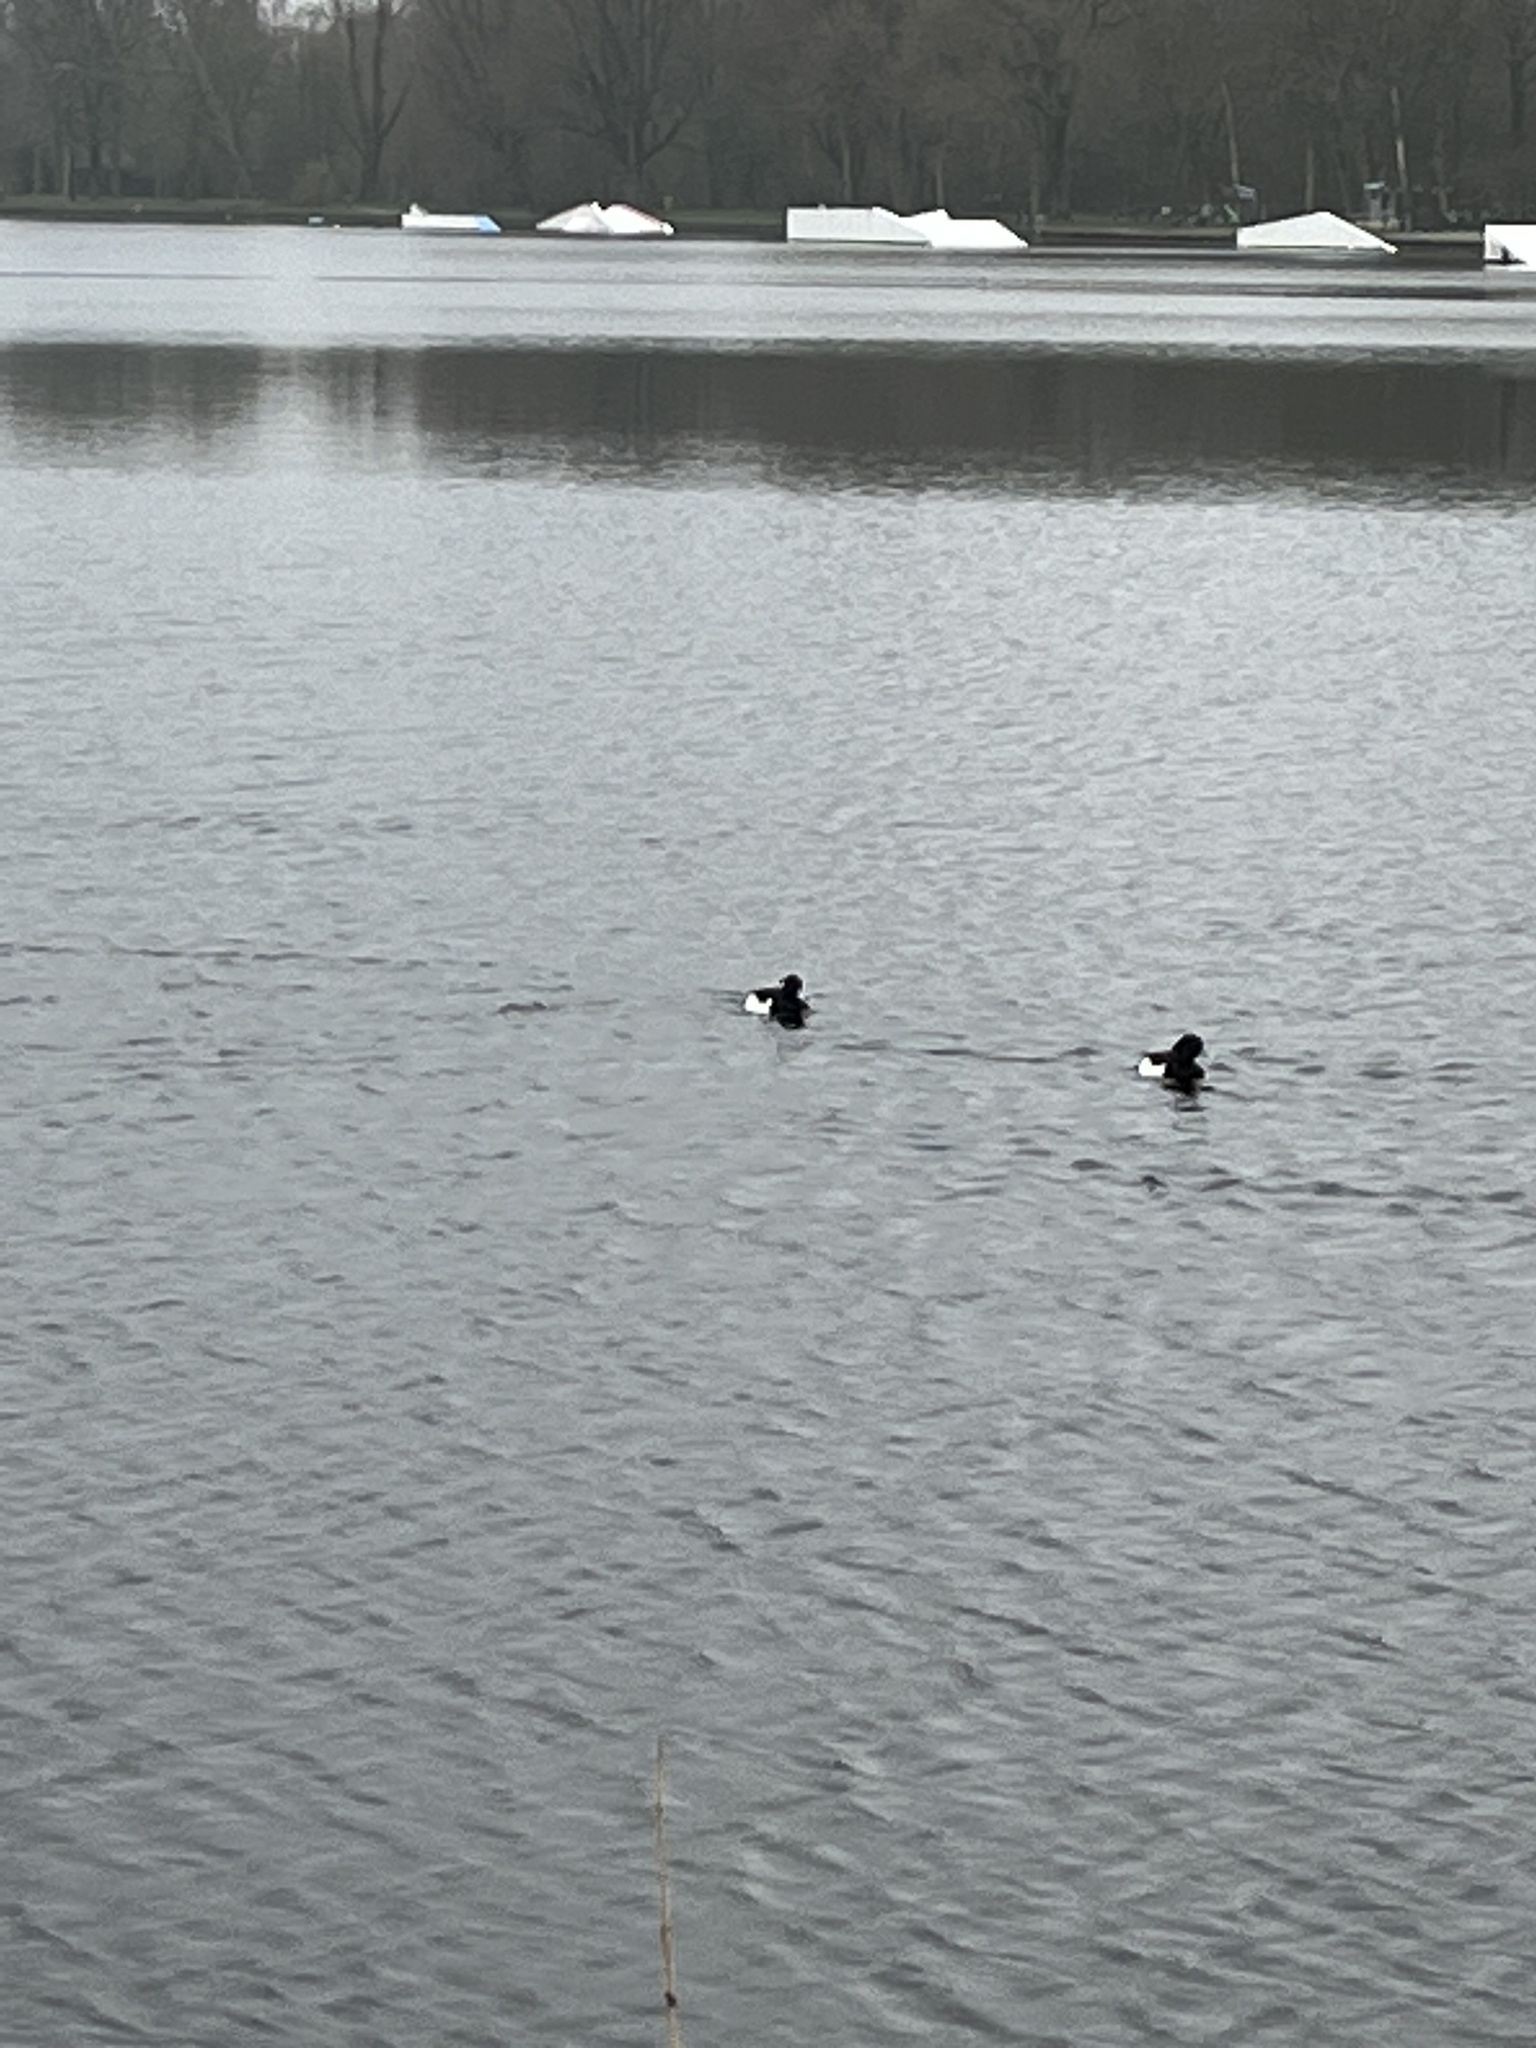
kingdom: Animalia
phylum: Chordata
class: Aves
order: Anseriformes
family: Anatidae
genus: Aythya
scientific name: Aythya fuligula
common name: Tufted duck
